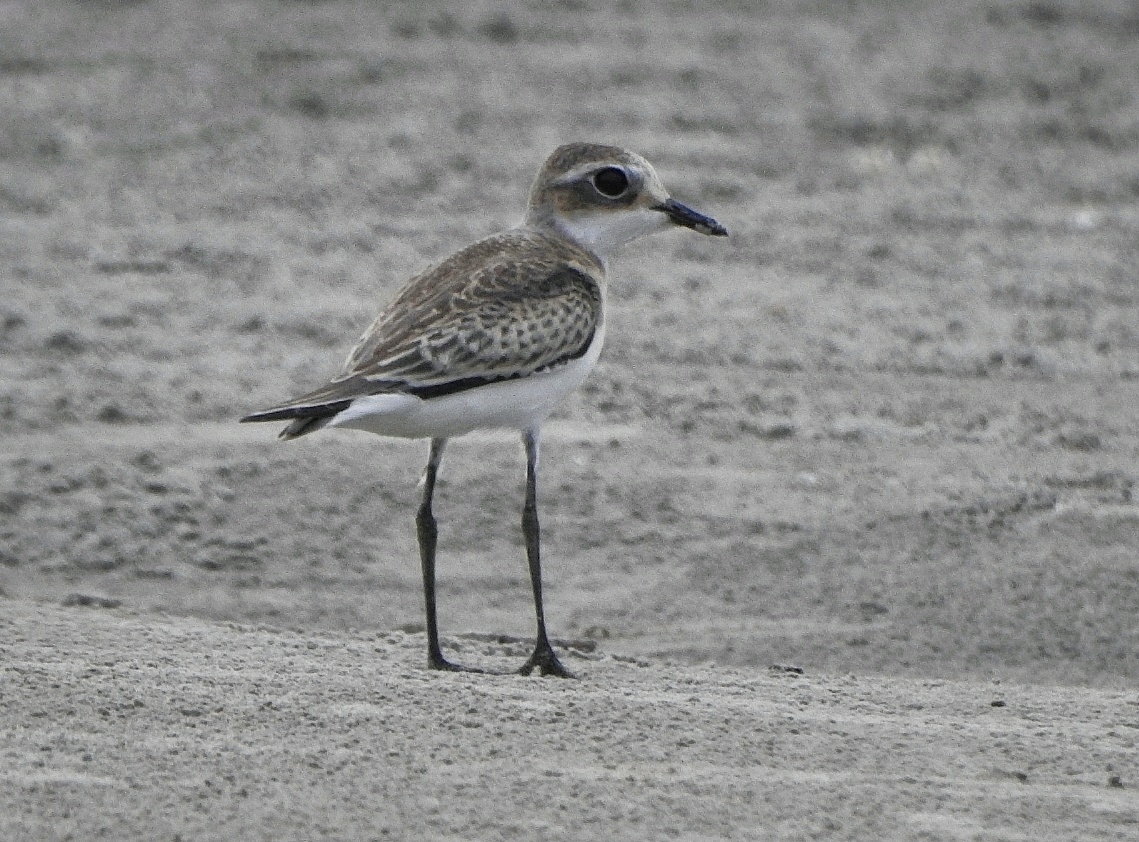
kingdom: Animalia
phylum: Chordata
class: Aves
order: Charadriiformes
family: Charadriidae
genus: Anarhynchus
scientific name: Anarhynchus
